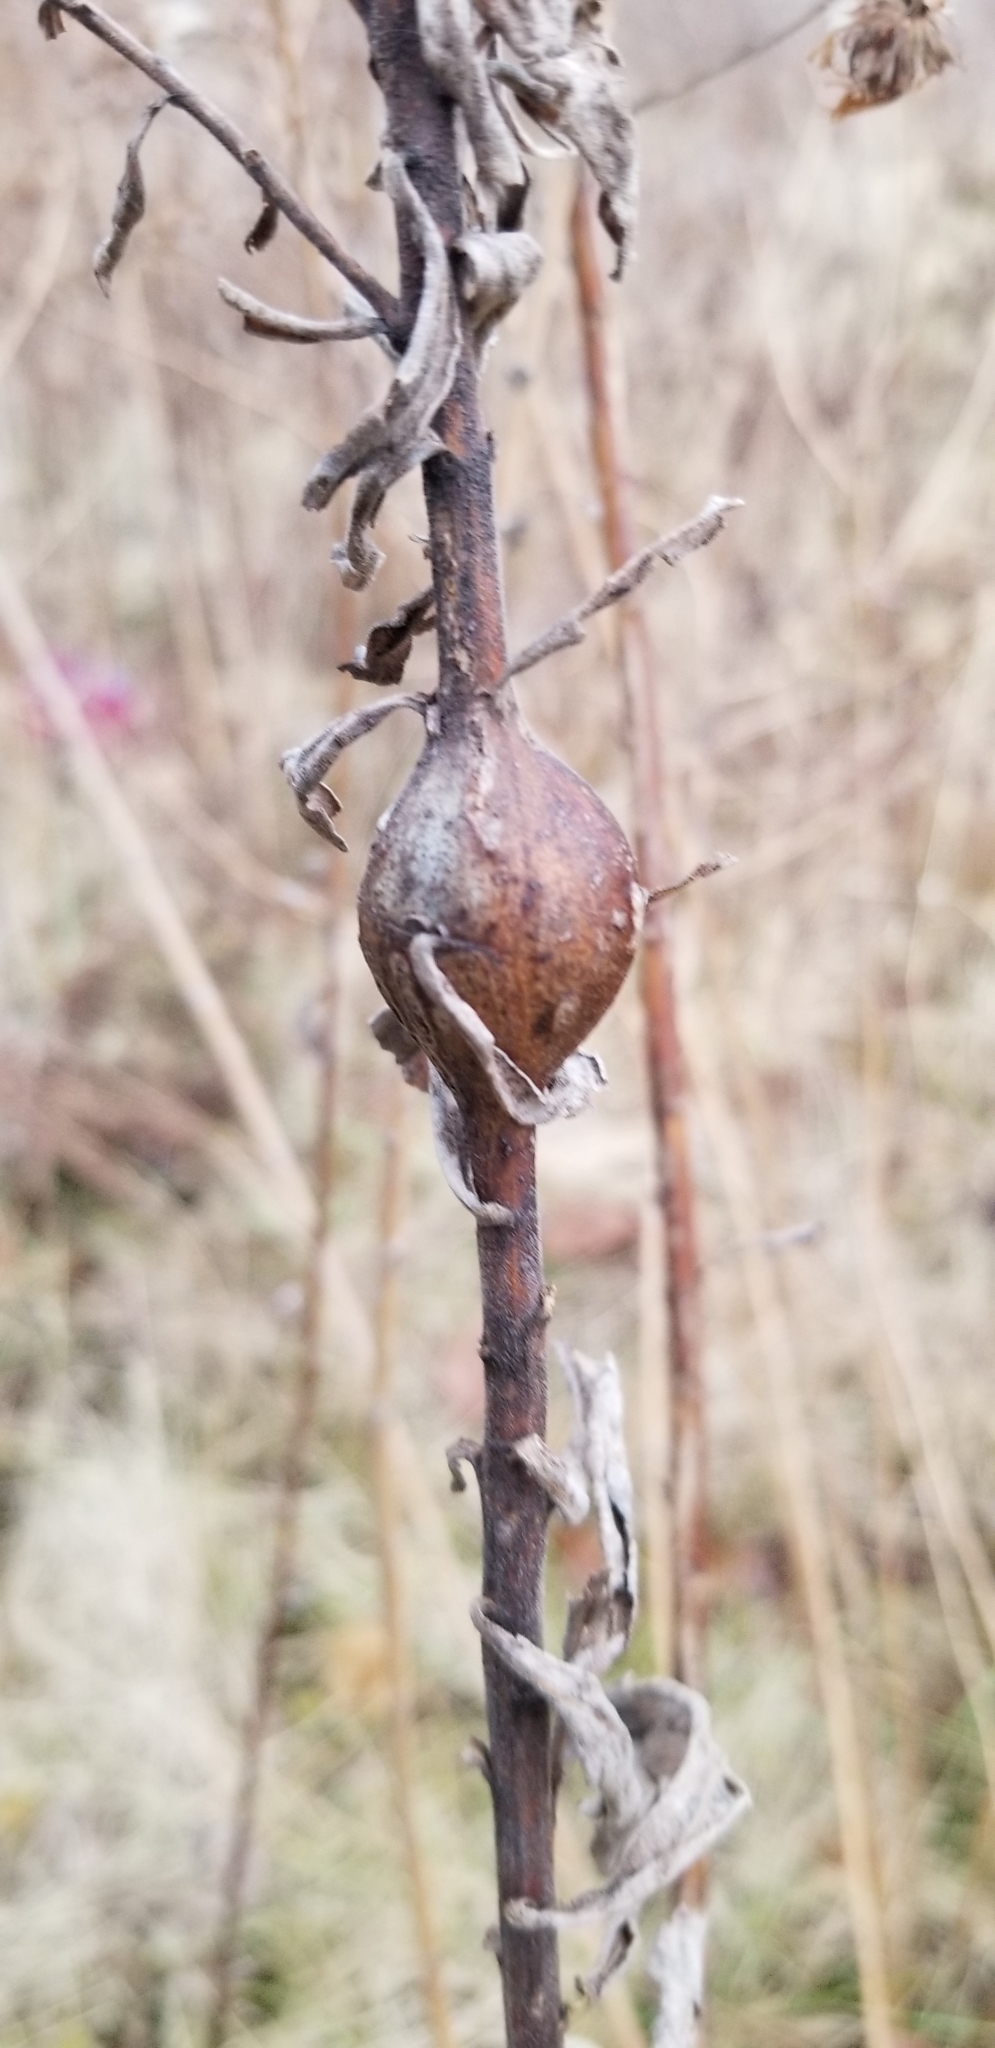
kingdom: Animalia
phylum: Arthropoda
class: Insecta
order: Diptera
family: Tephritidae
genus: Eurosta
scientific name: Eurosta solidaginis
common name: Goldenrod gall fly
